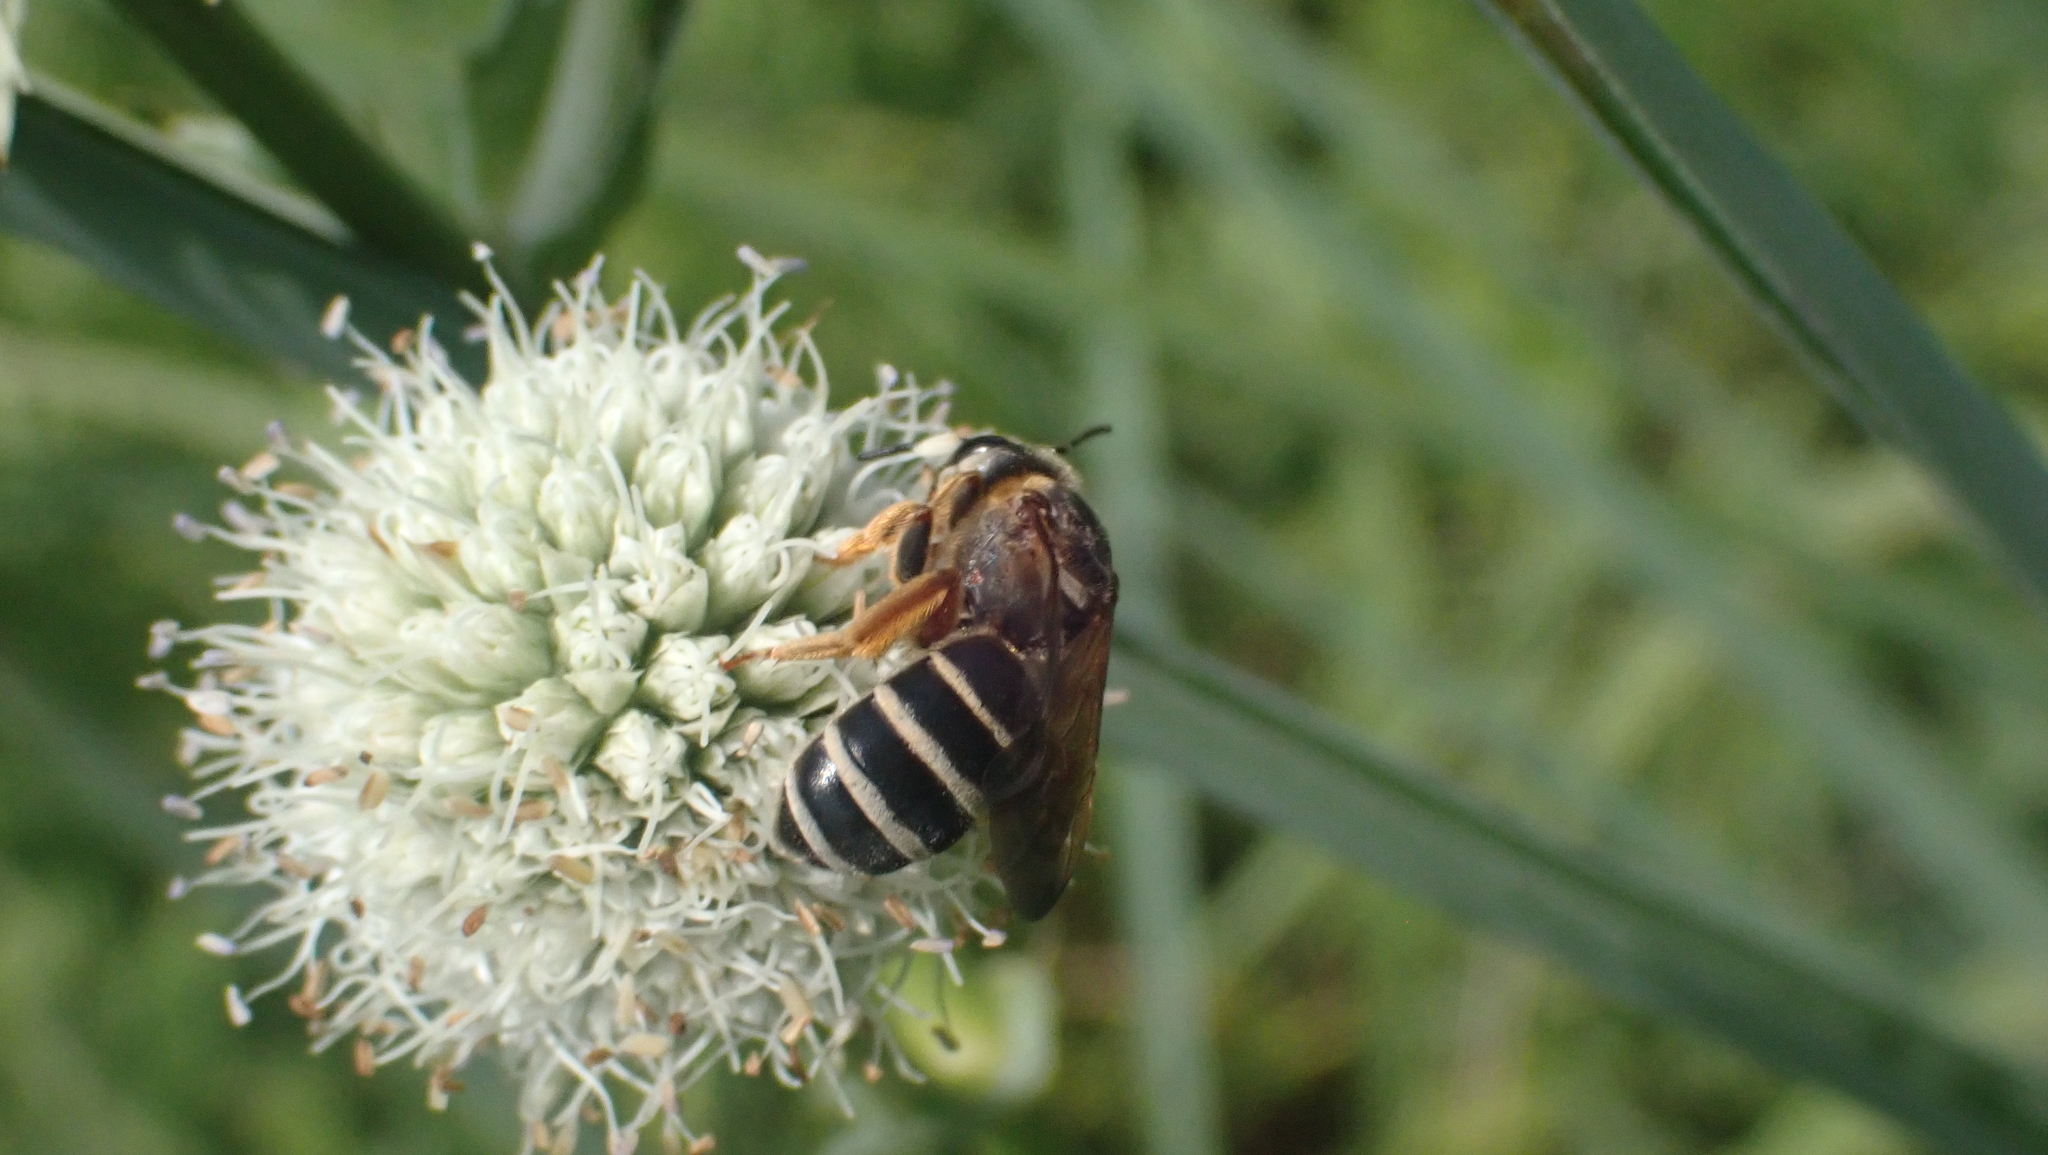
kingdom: Animalia
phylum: Arthropoda
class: Insecta
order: Hymenoptera
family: Halictidae
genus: Halictus
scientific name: Halictus parallelus
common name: Parallel-striped sweat bee
